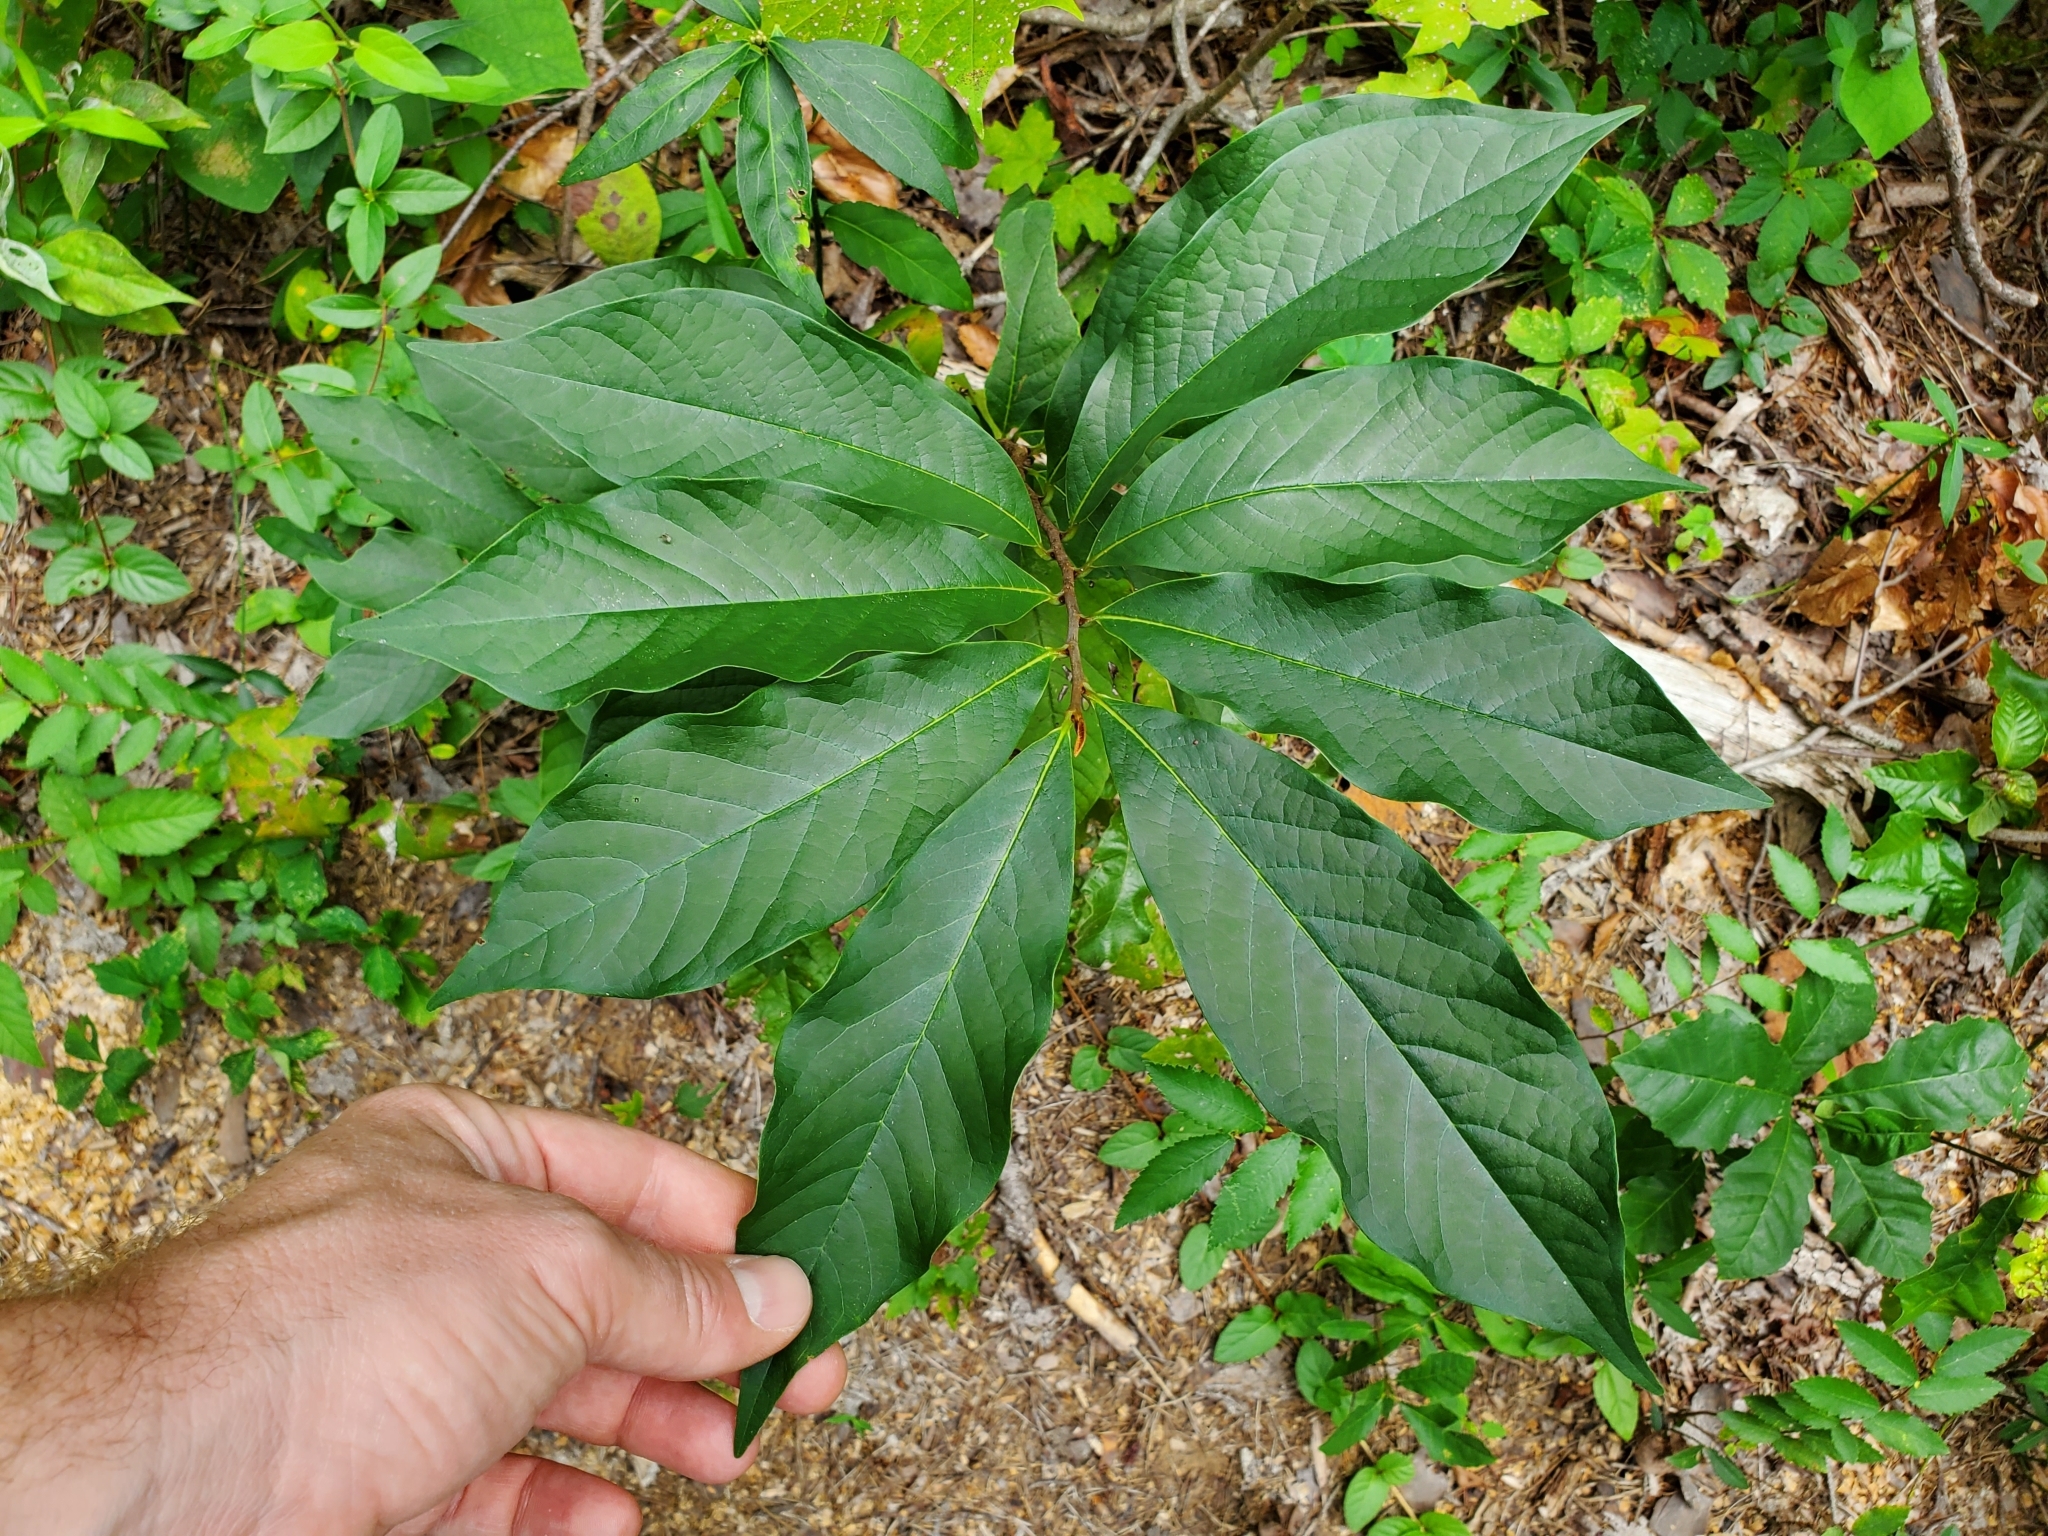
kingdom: Plantae
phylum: Tracheophyta
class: Magnoliopsida
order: Magnoliales
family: Annonaceae
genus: Asimina
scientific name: Asimina triloba
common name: Dog-banana
